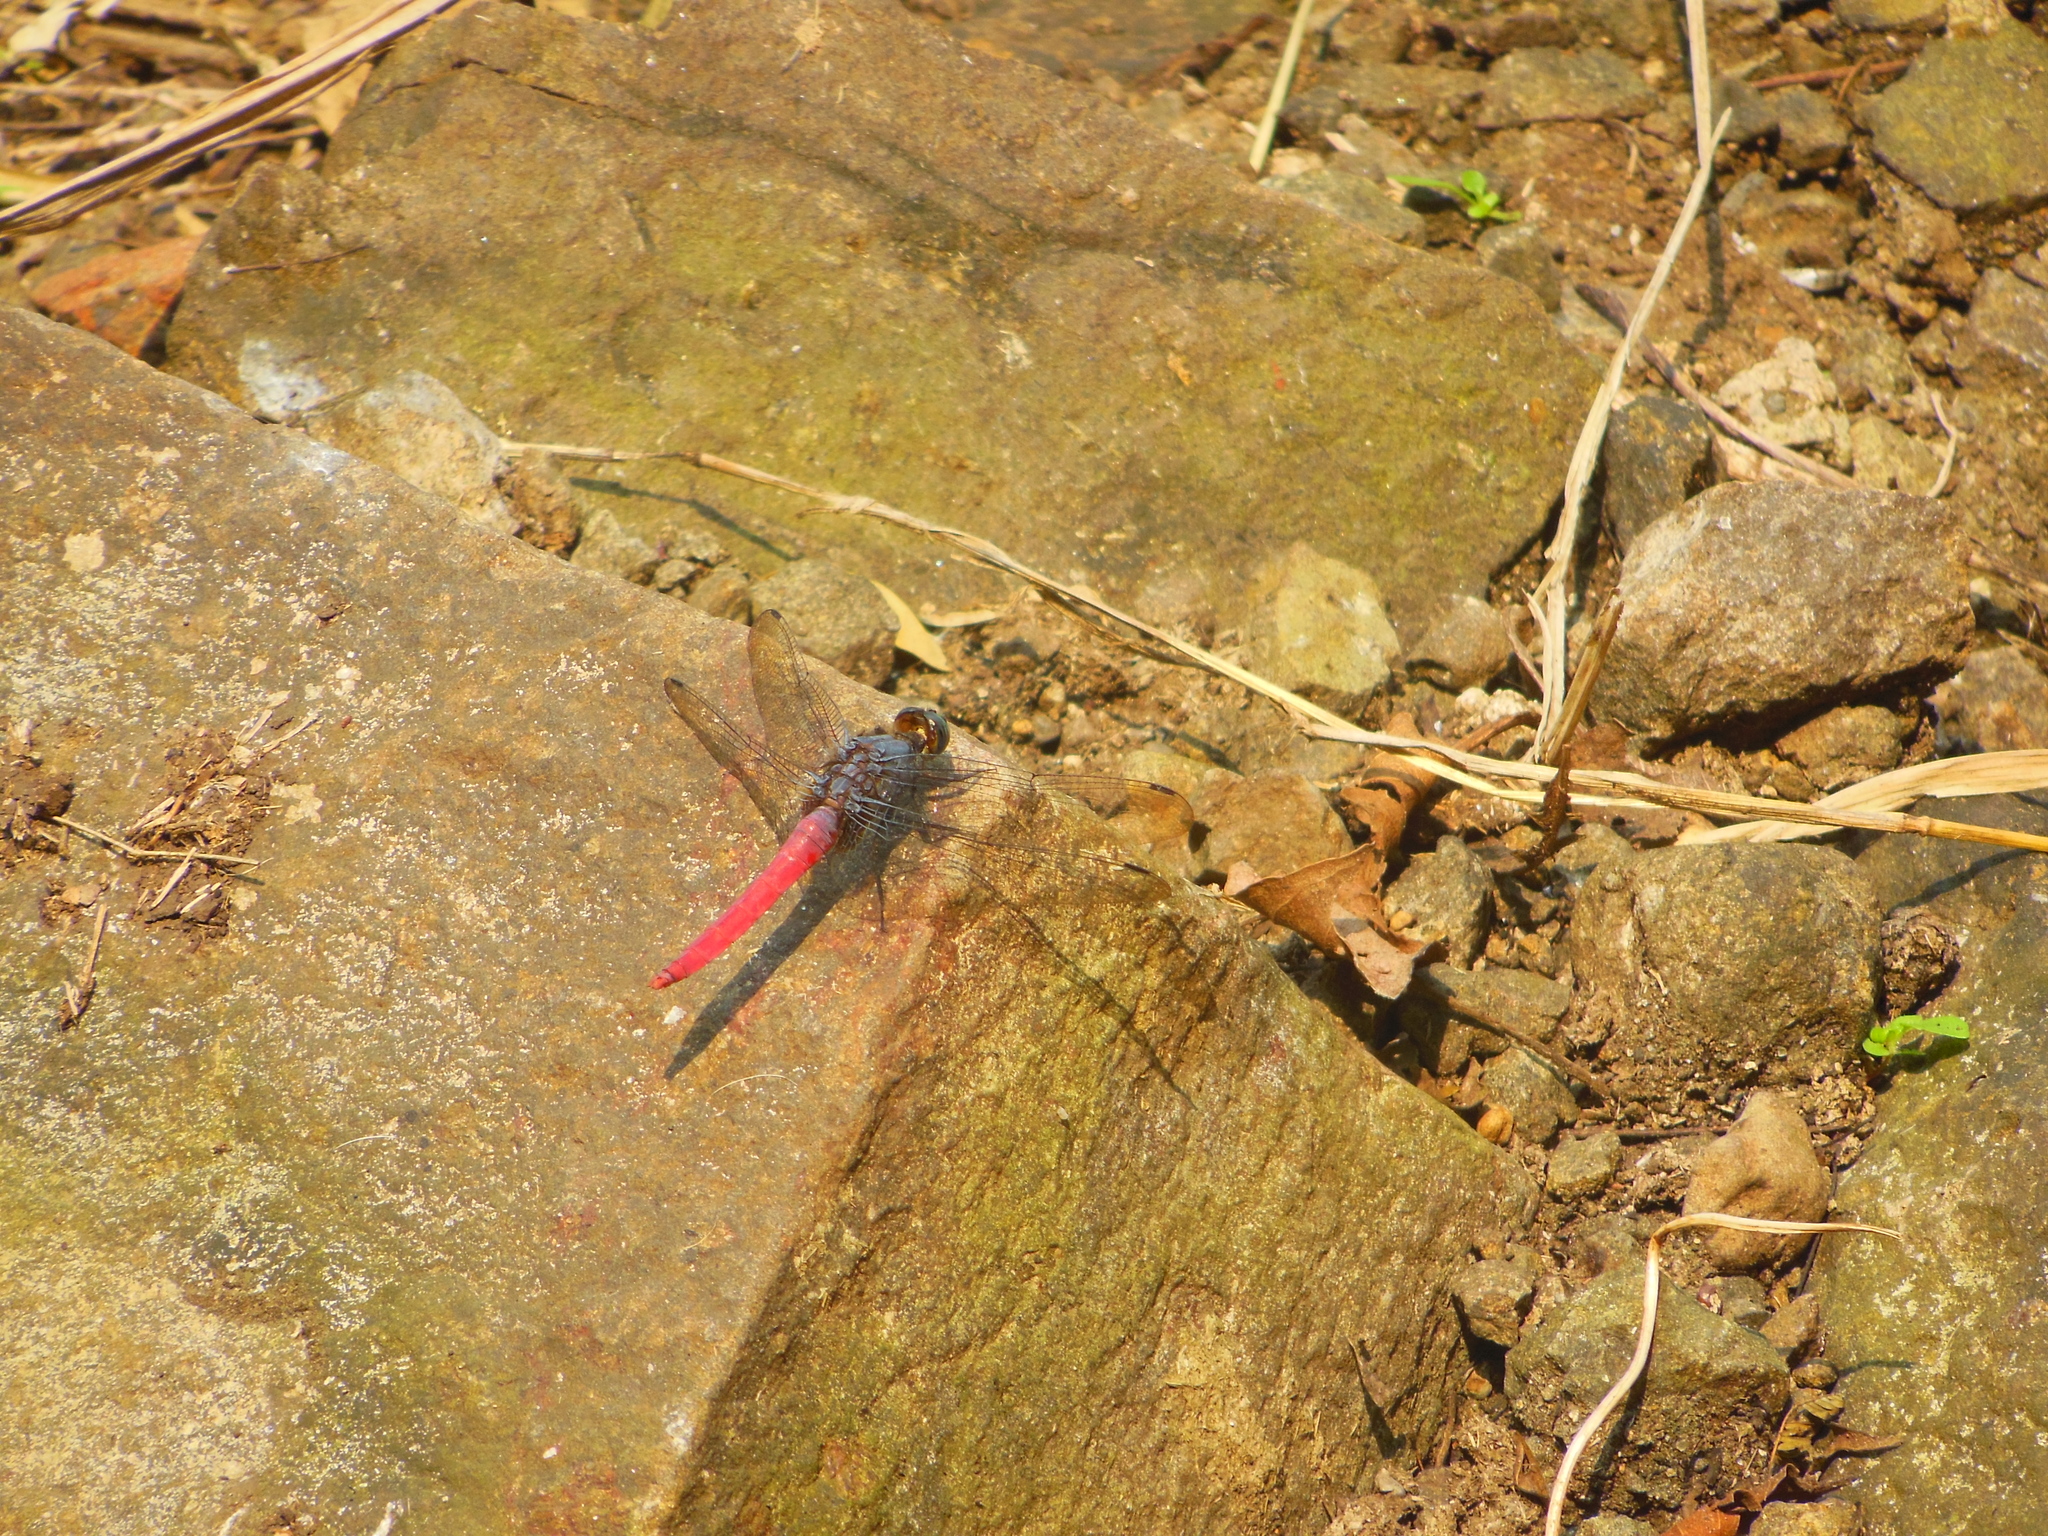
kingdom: Animalia
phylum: Arthropoda
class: Insecta
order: Odonata
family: Libellulidae
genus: Orthetrum
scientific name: Orthetrum pruinosum
